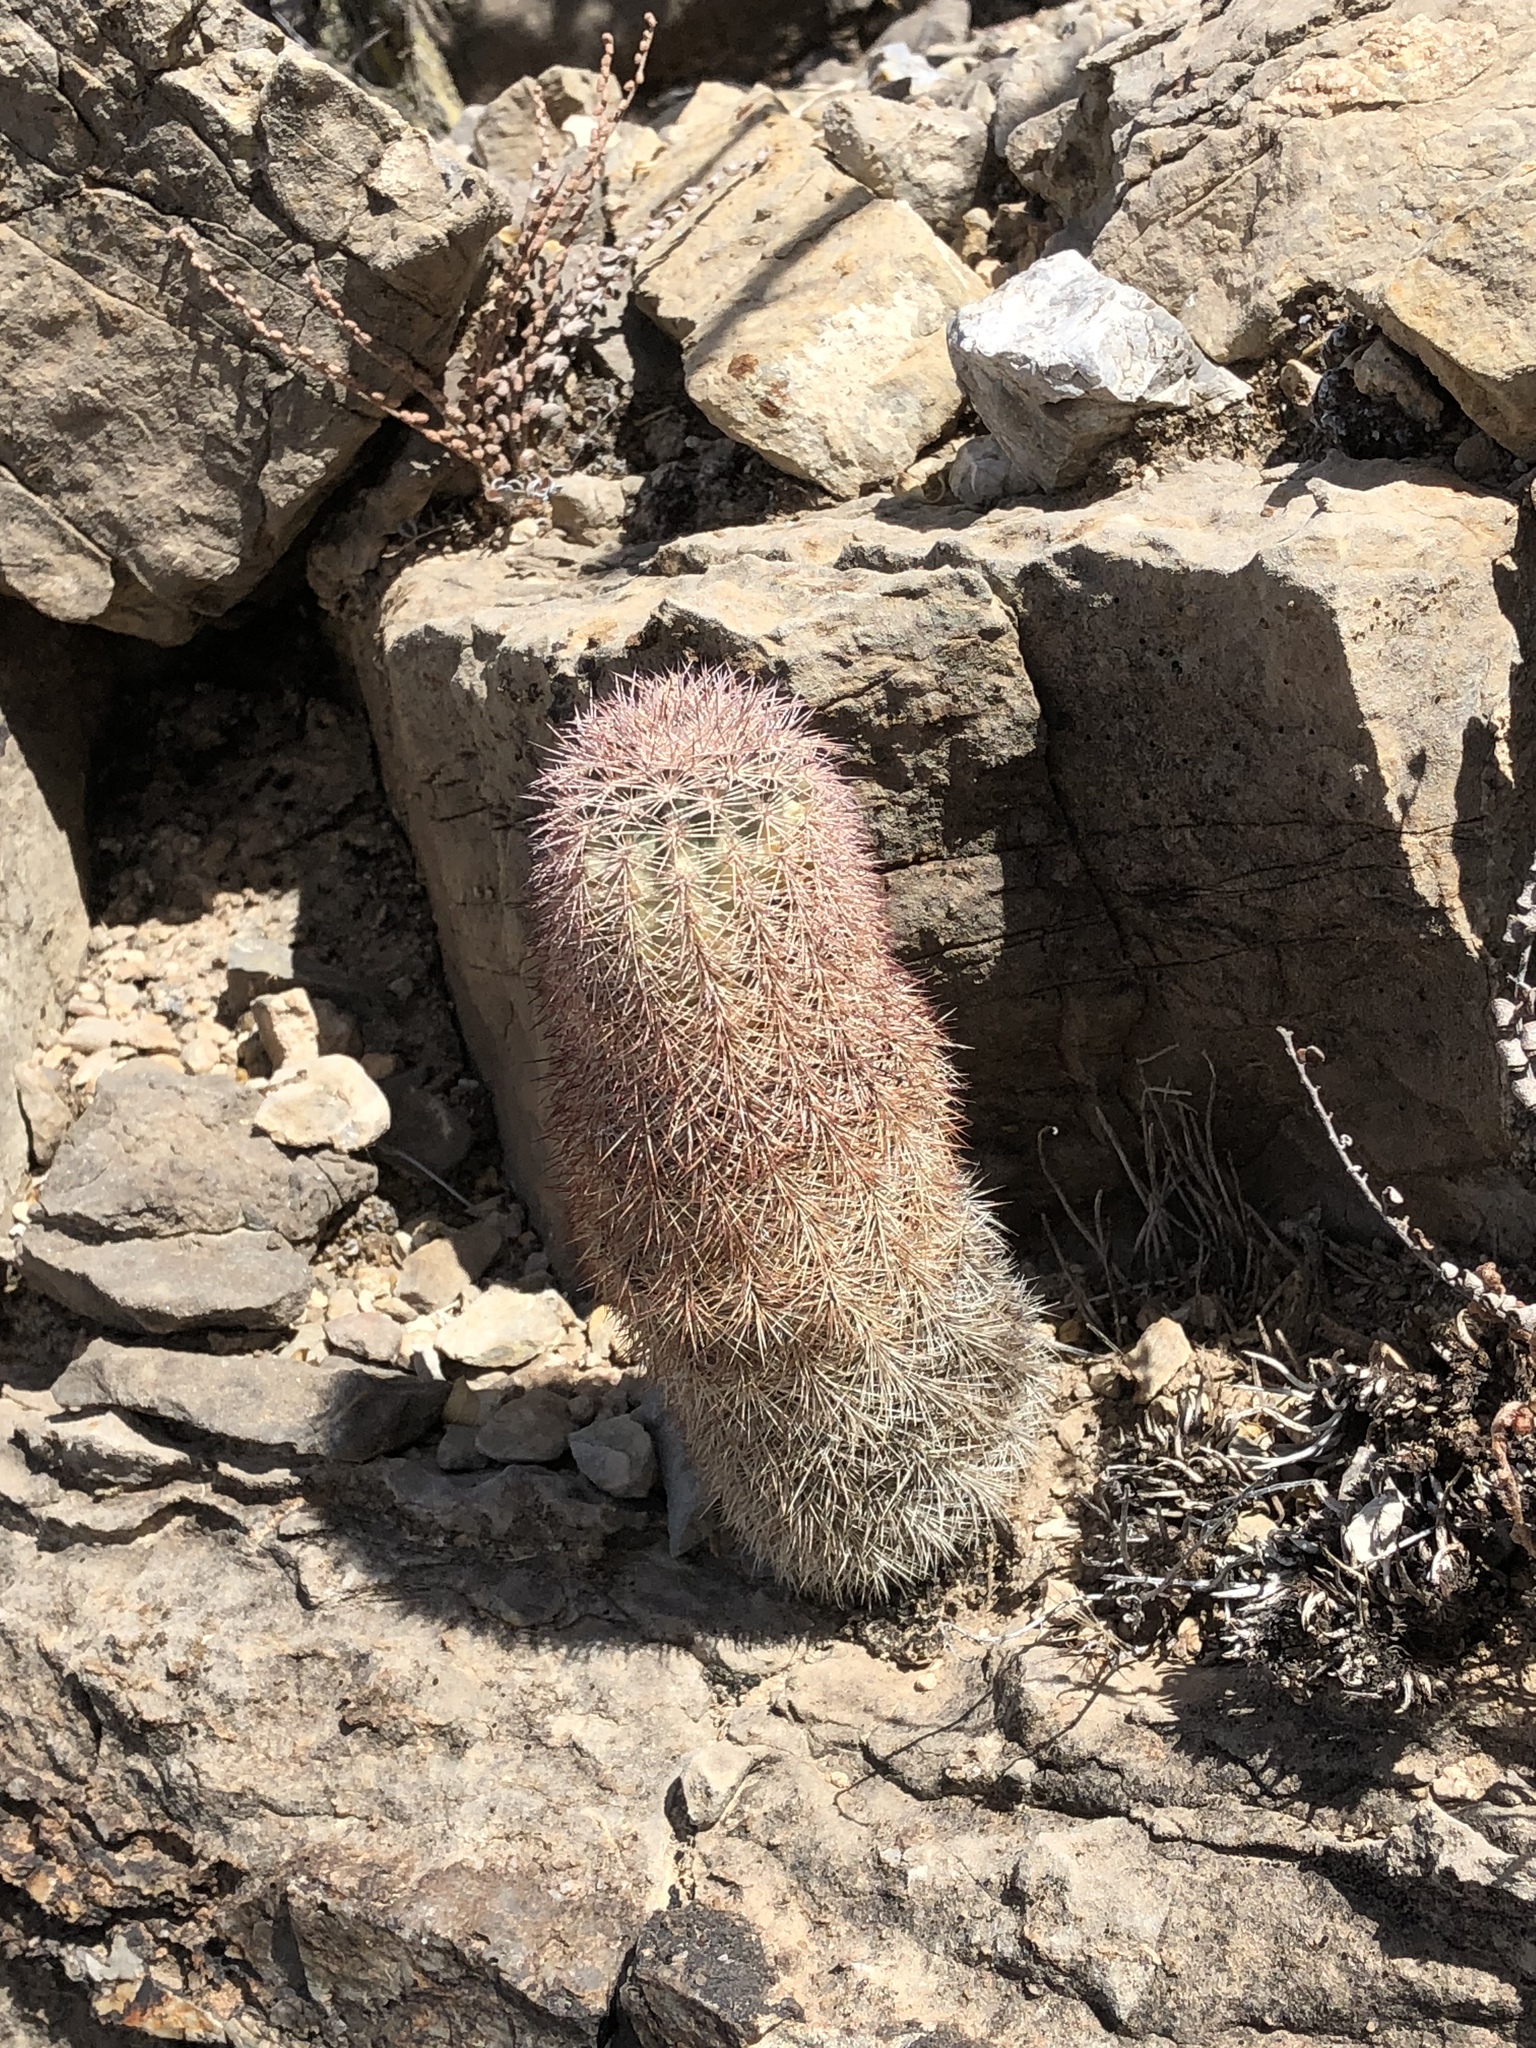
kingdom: Plantae
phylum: Tracheophyta
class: Magnoliopsida
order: Caryophyllales
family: Cactaceae
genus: Echinocereus
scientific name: Echinocereus dasyacanthus
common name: Spiny hedgehog cactus
